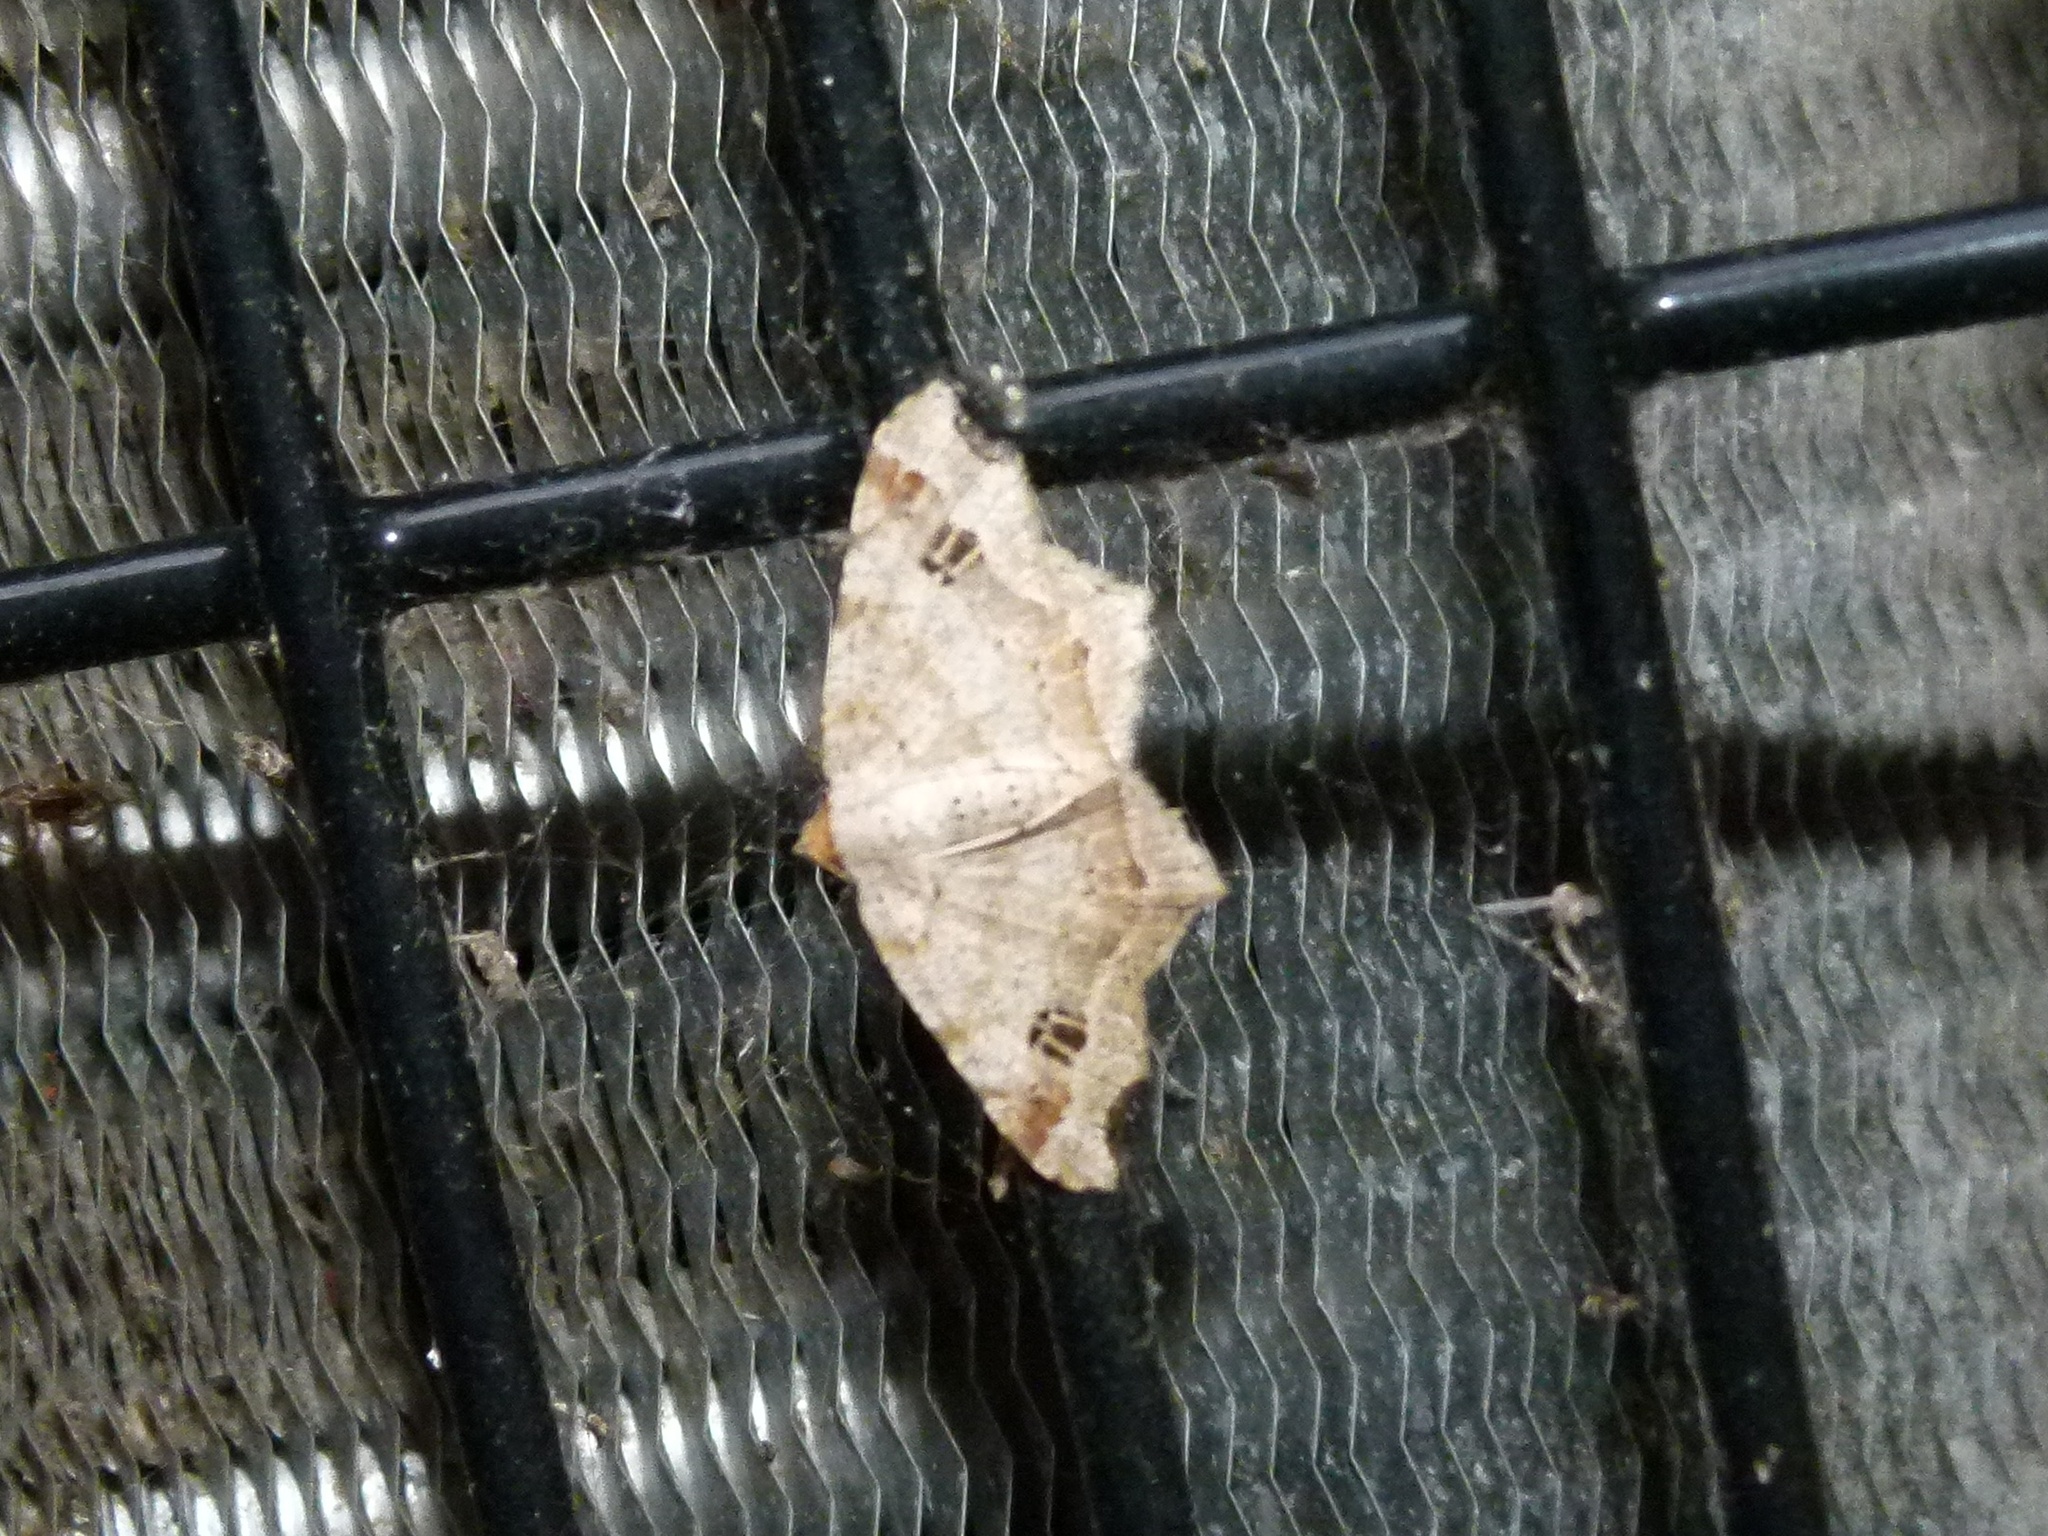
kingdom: Animalia
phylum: Arthropoda
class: Insecta
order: Lepidoptera
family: Geometridae
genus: Macaria
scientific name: Macaria aemulataria
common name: Common angle
